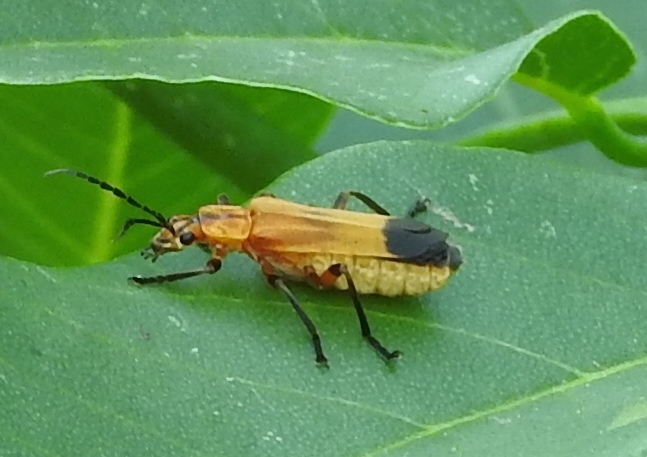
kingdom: Animalia
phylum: Arthropoda
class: Insecta
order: Coleoptera
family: Cantharidae
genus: Daiphron
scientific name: Daiphron proteum
